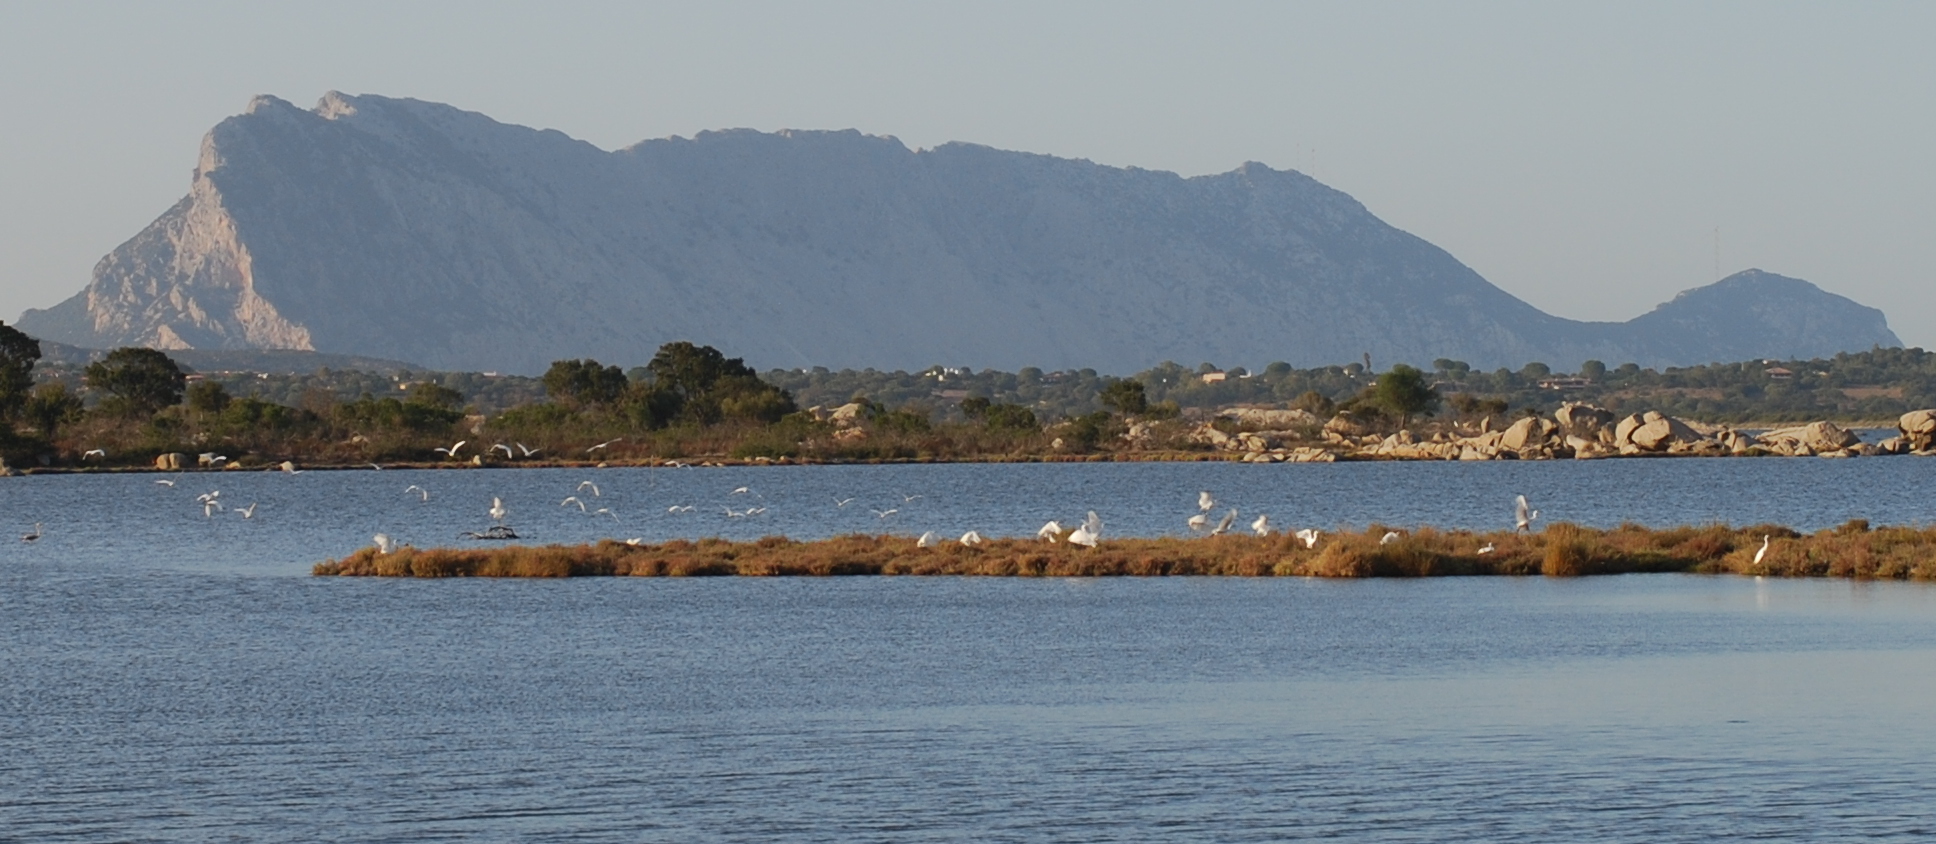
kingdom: Animalia
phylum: Chordata
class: Aves
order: Pelecaniformes
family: Ardeidae
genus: Egretta
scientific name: Egretta garzetta
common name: Little egret
